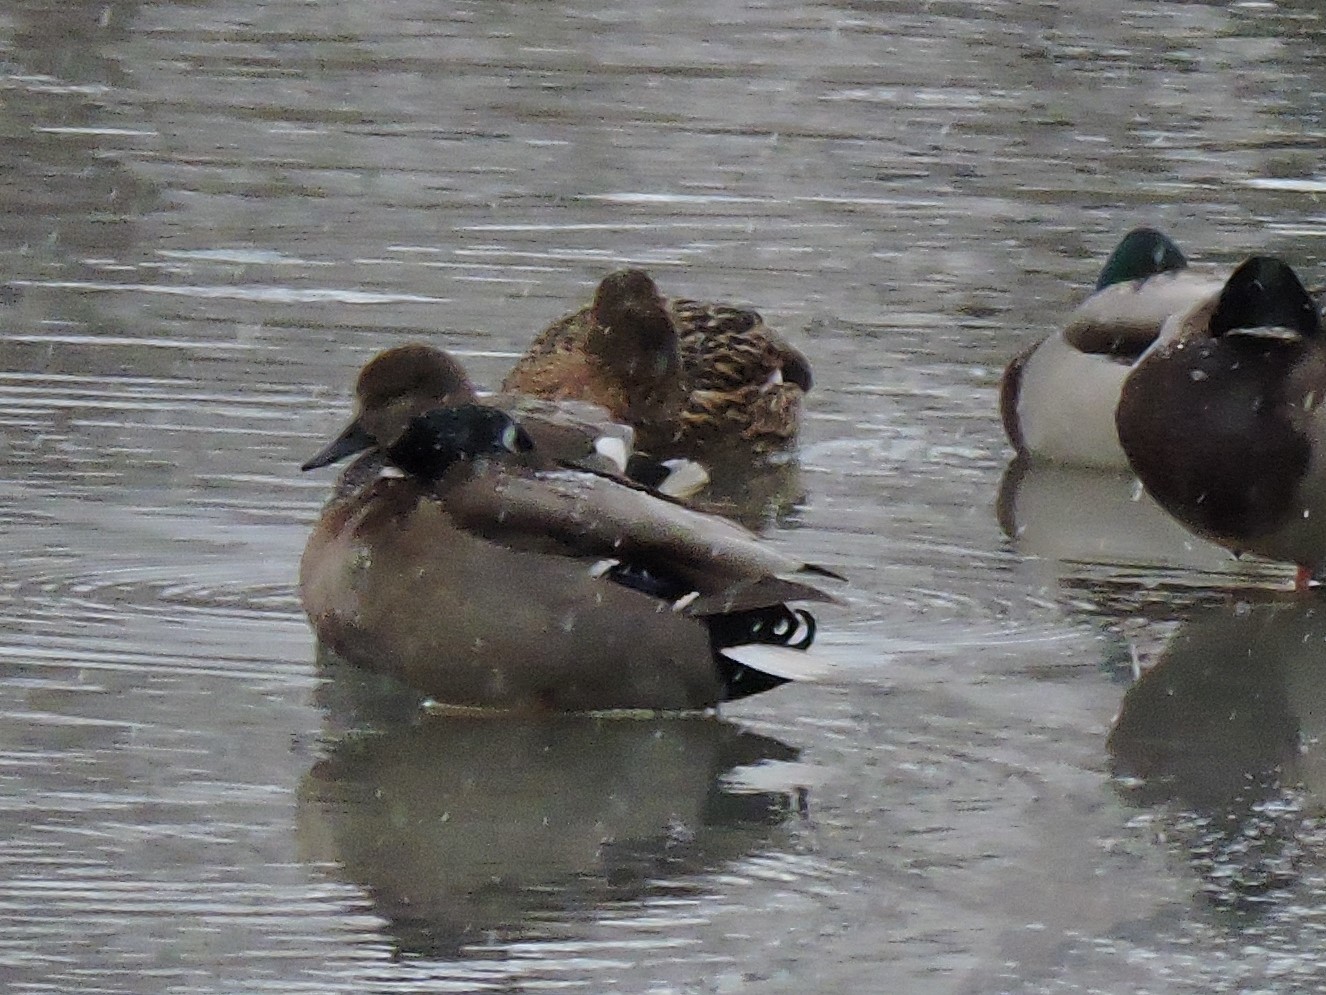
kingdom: Animalia
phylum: Chordata
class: Aves
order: Anseriformes
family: Anatidae
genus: Anas
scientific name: Anas platyrhynchos
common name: Mallard
